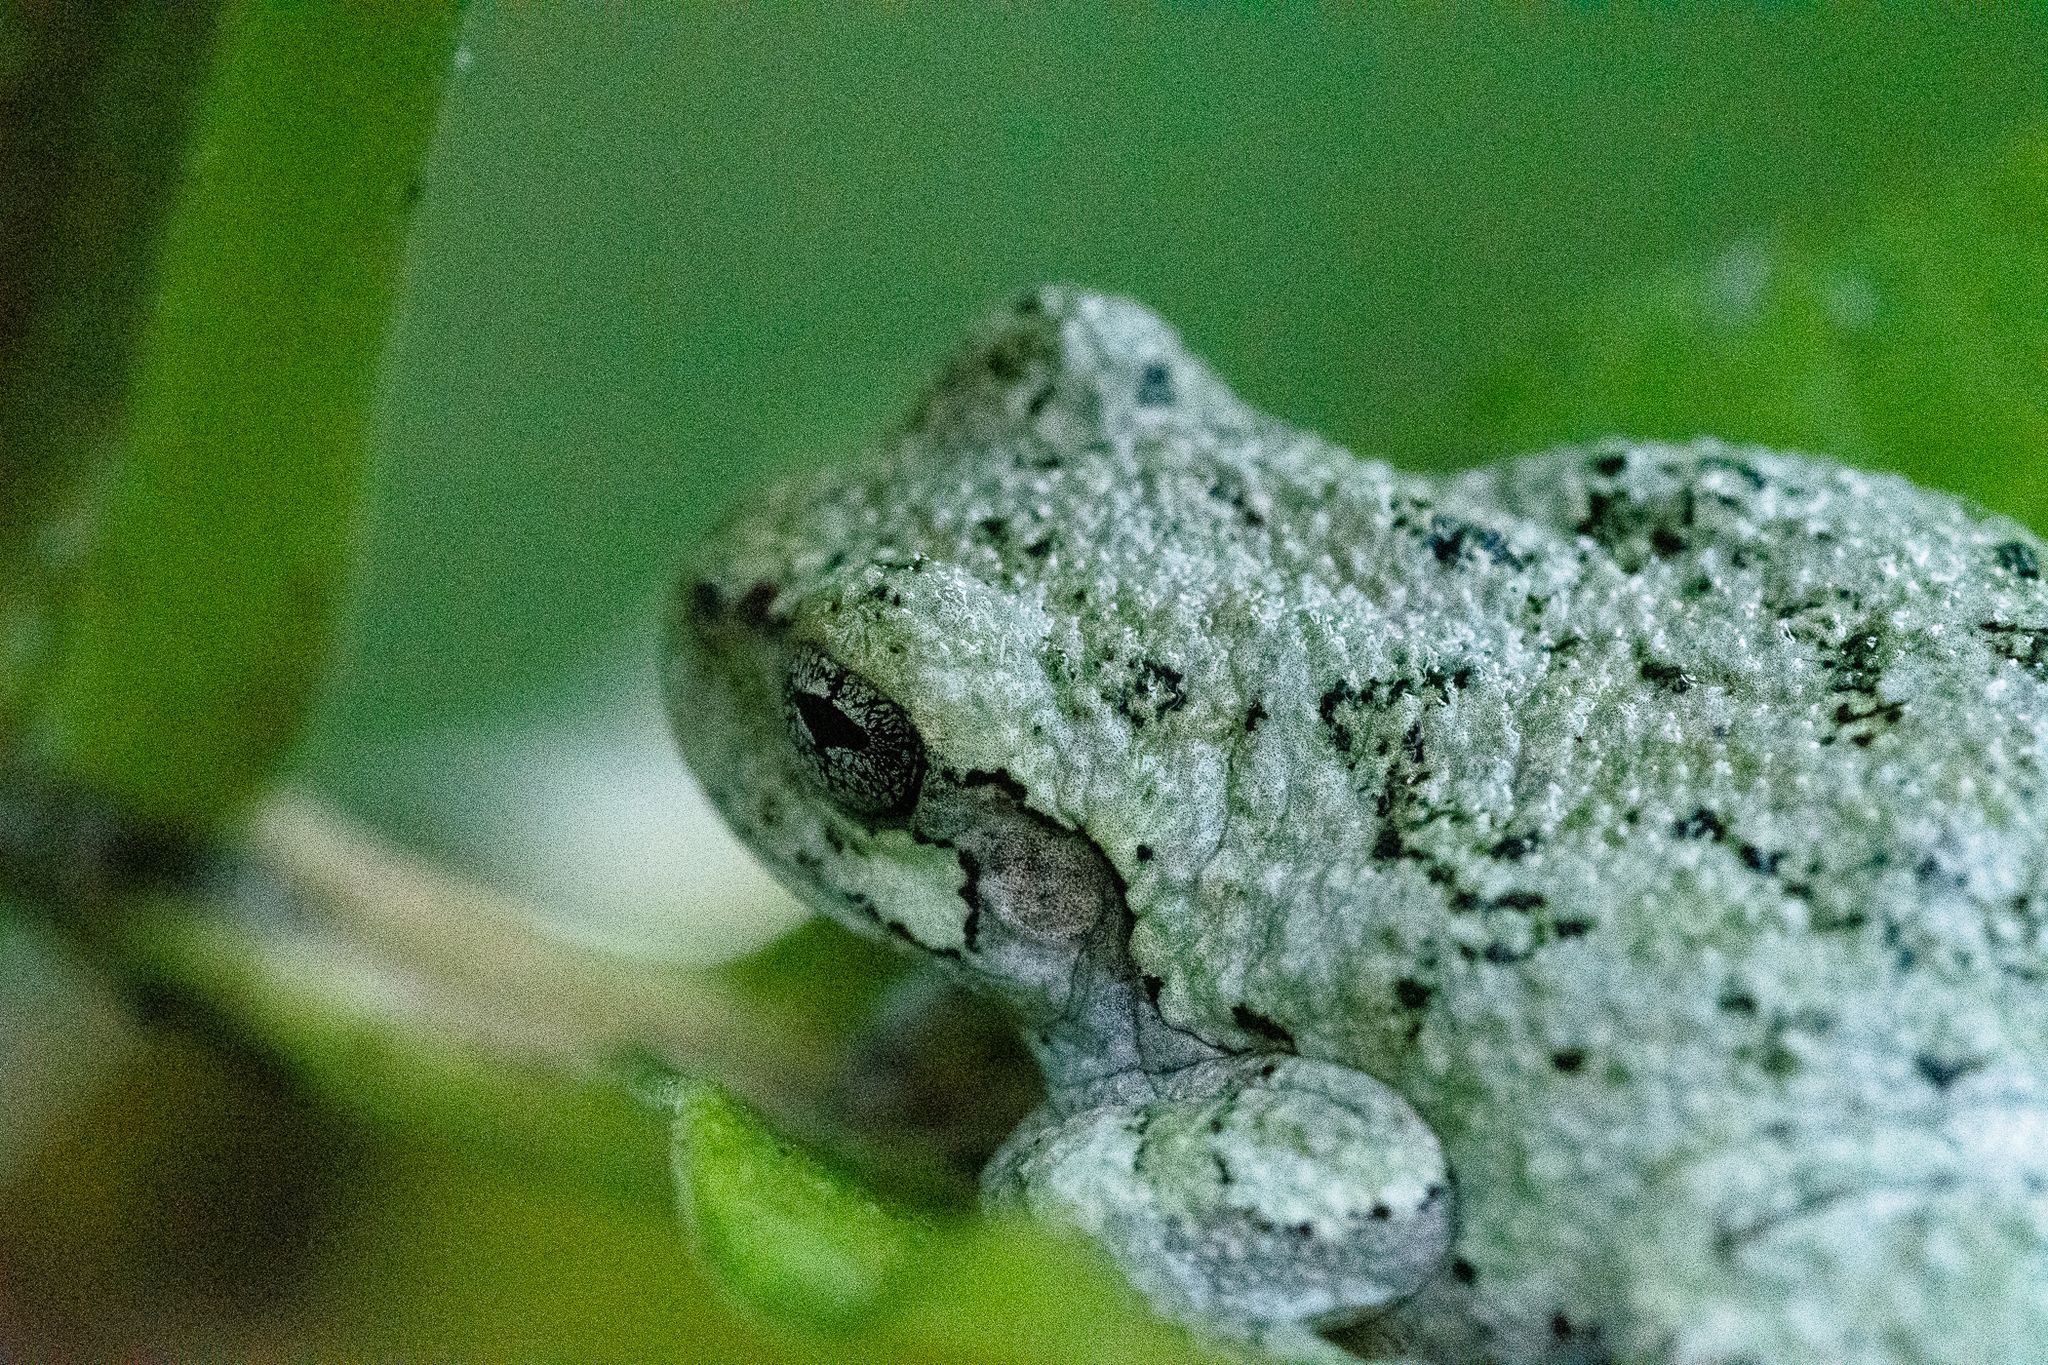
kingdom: Animalia
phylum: Chordata
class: Amphibia
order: Anura
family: Hylidae
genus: Hyla
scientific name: Hyla
